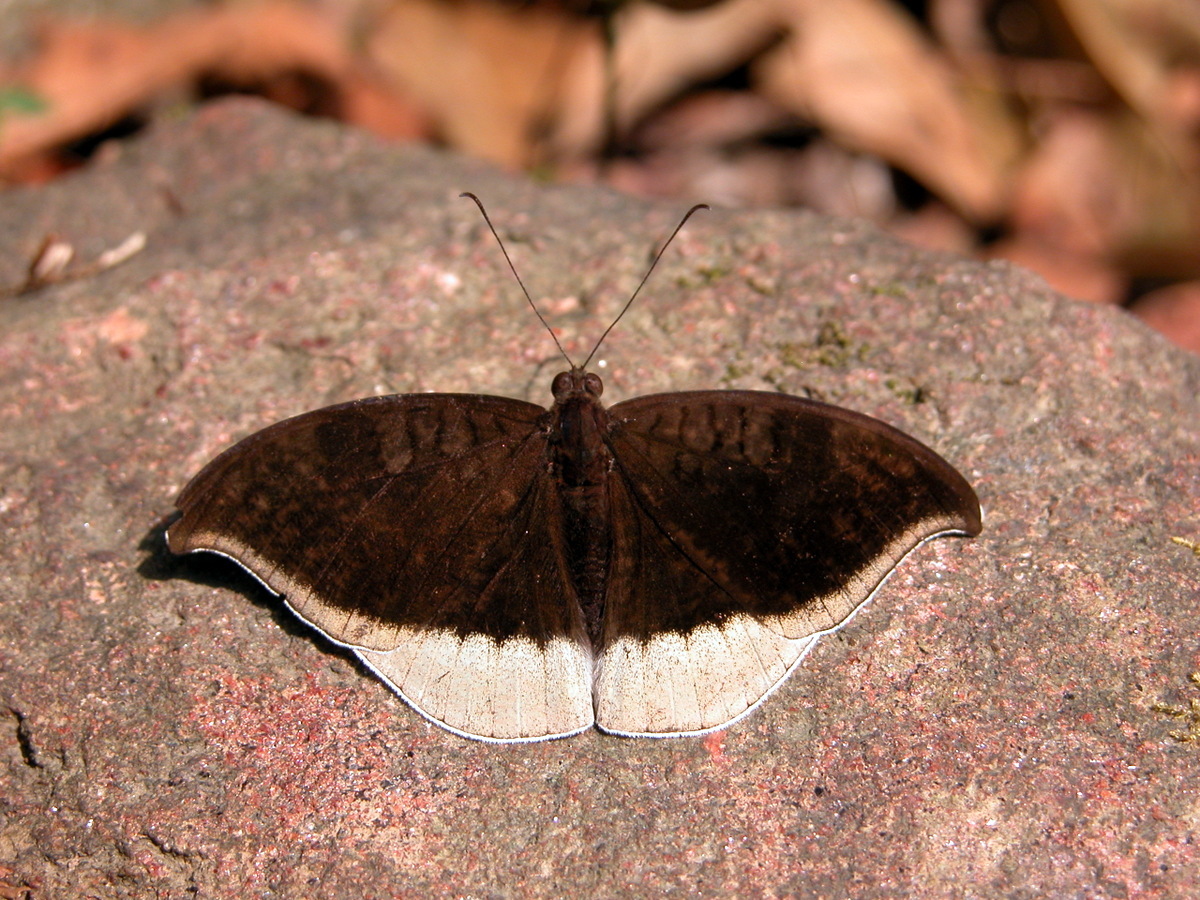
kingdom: Animalia
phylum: Arthropoda
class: Insecta
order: Lepidoptera
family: Nymphalidae
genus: Tanaecia
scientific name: Tanaecia lepidea
